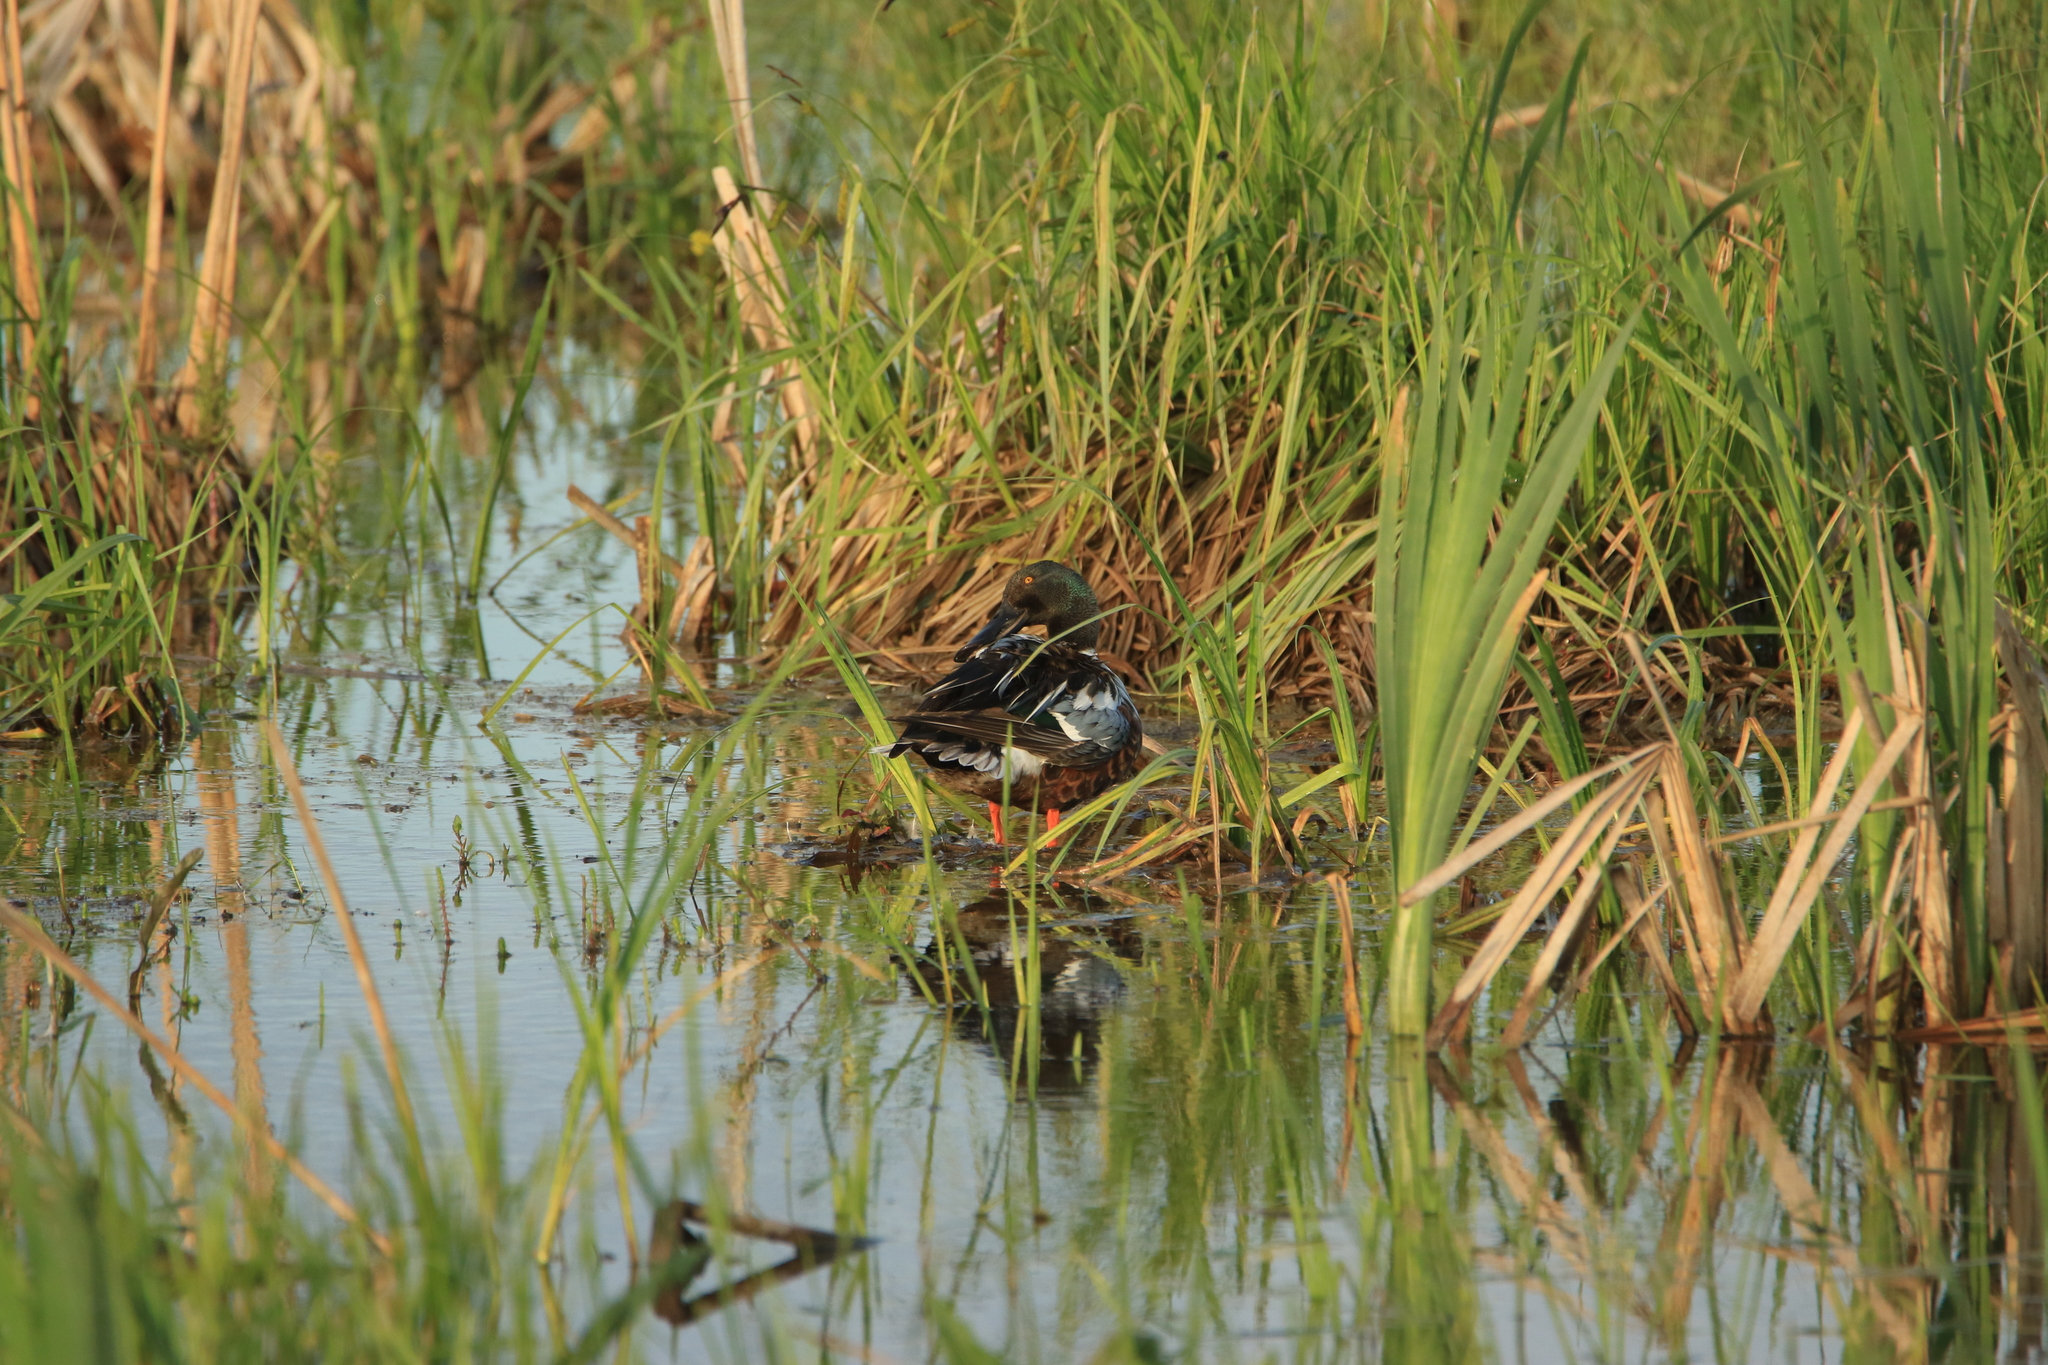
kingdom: Animalia
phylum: Chordata
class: Aves
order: Anseriformes
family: Anatidae
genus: Spatula
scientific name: Spatula clypeata
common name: Northern shoveler
